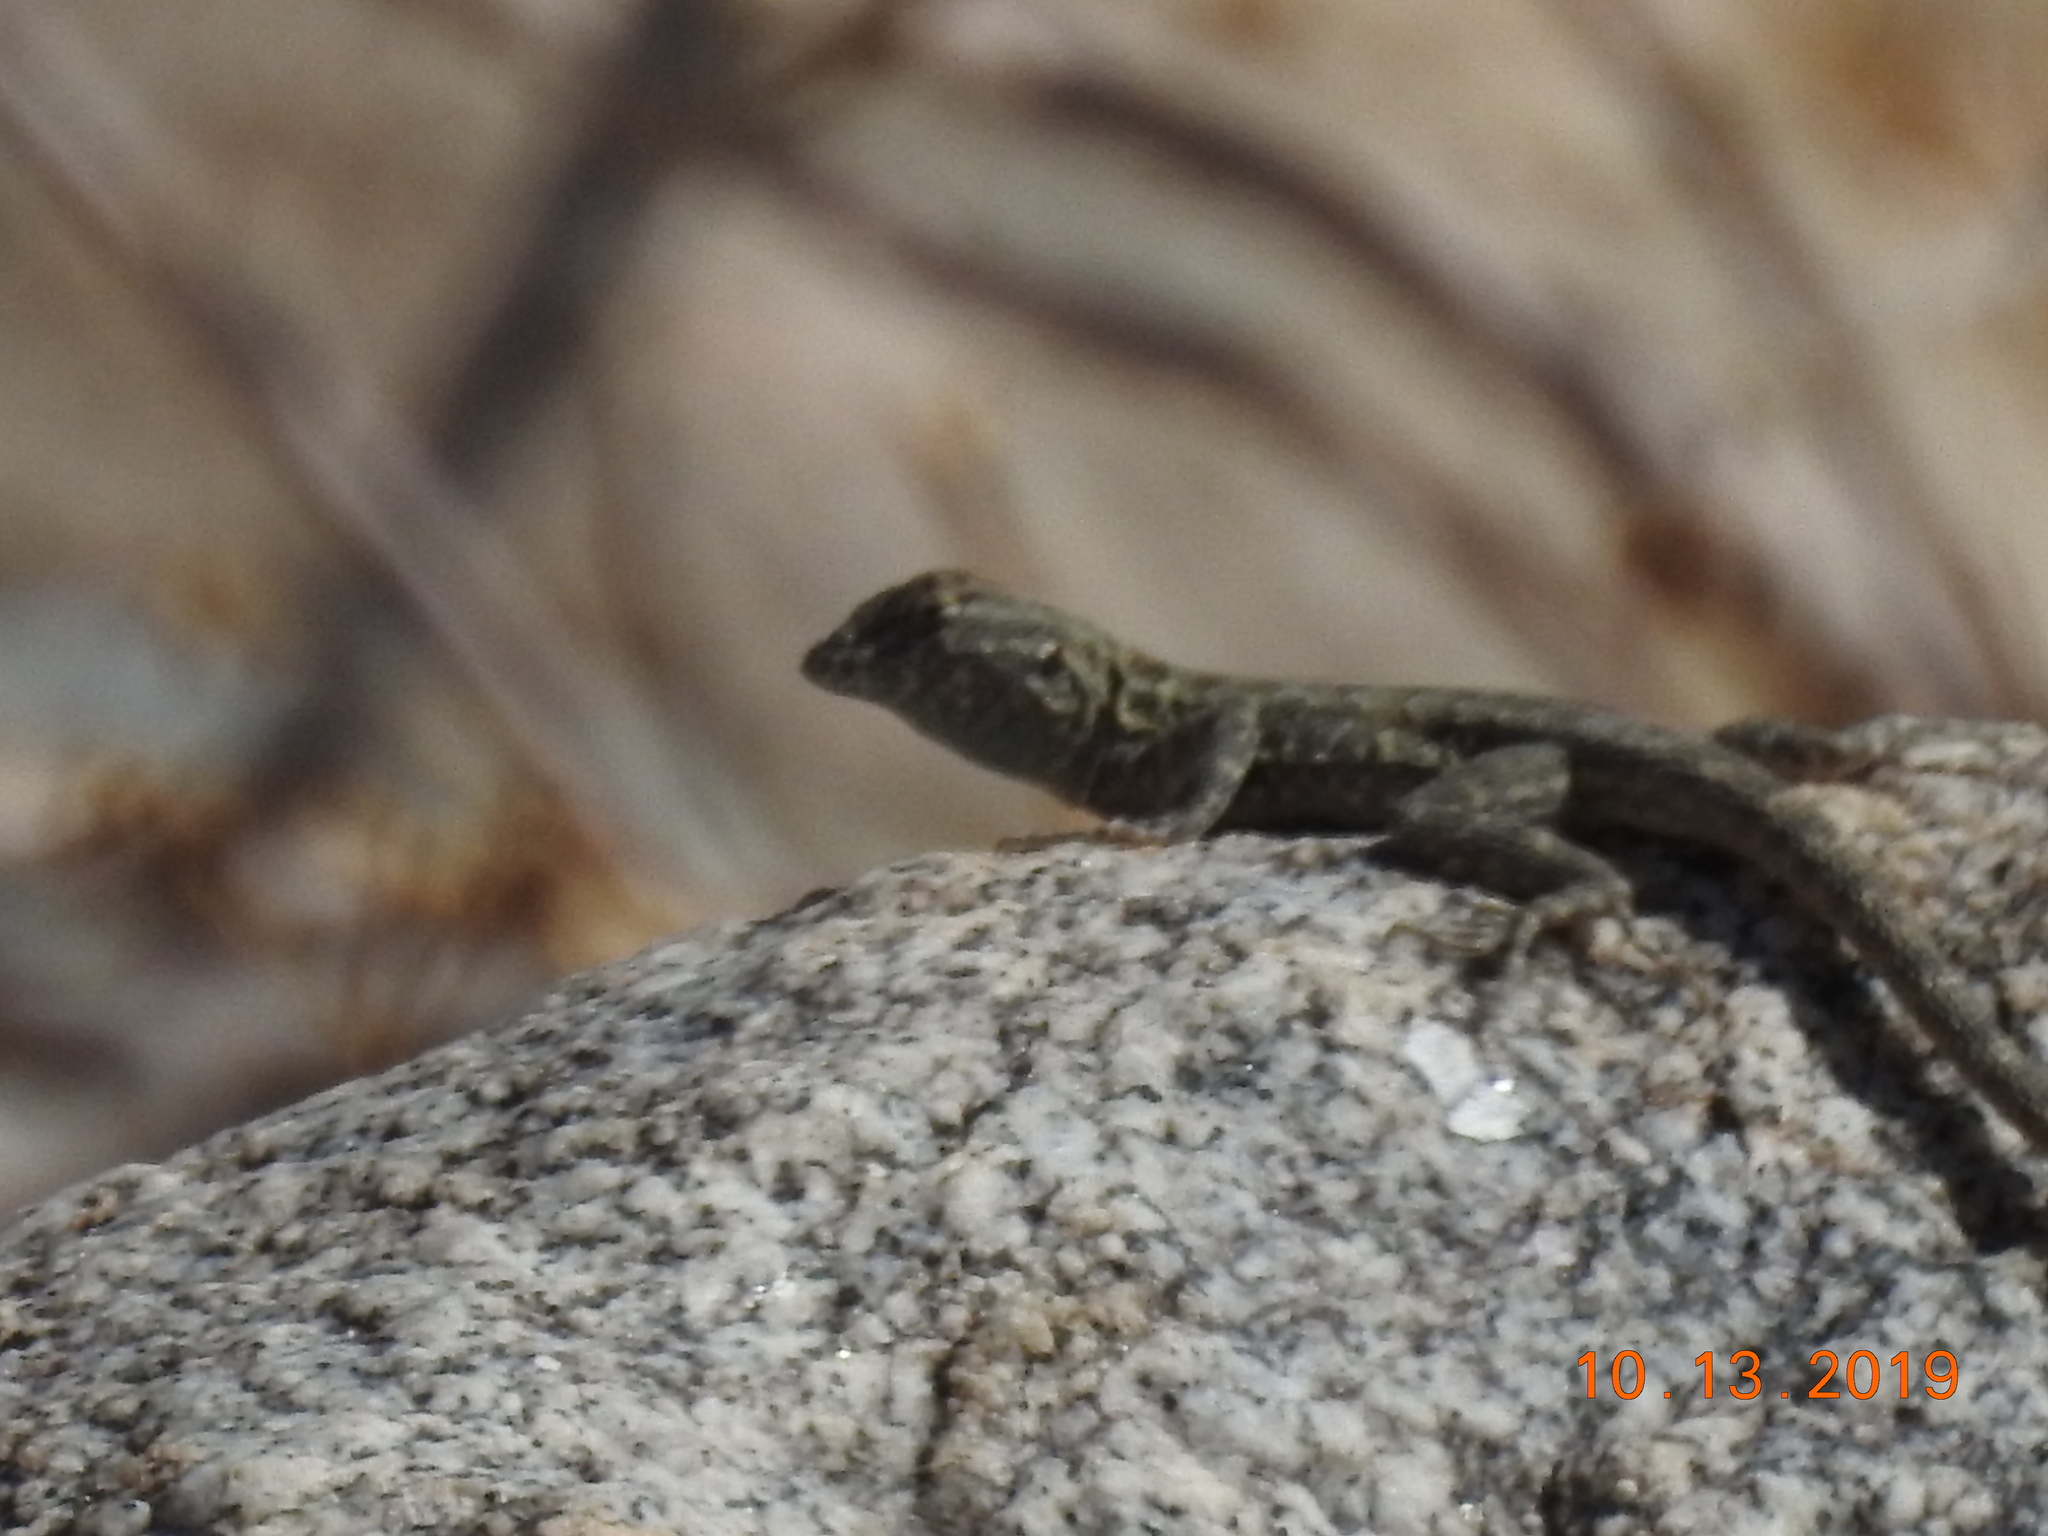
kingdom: Animalia
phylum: Chordata
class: Squamata
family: Phrynosomatidae
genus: Uta
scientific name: Uta stansburiana
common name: Side-blotched lizard
